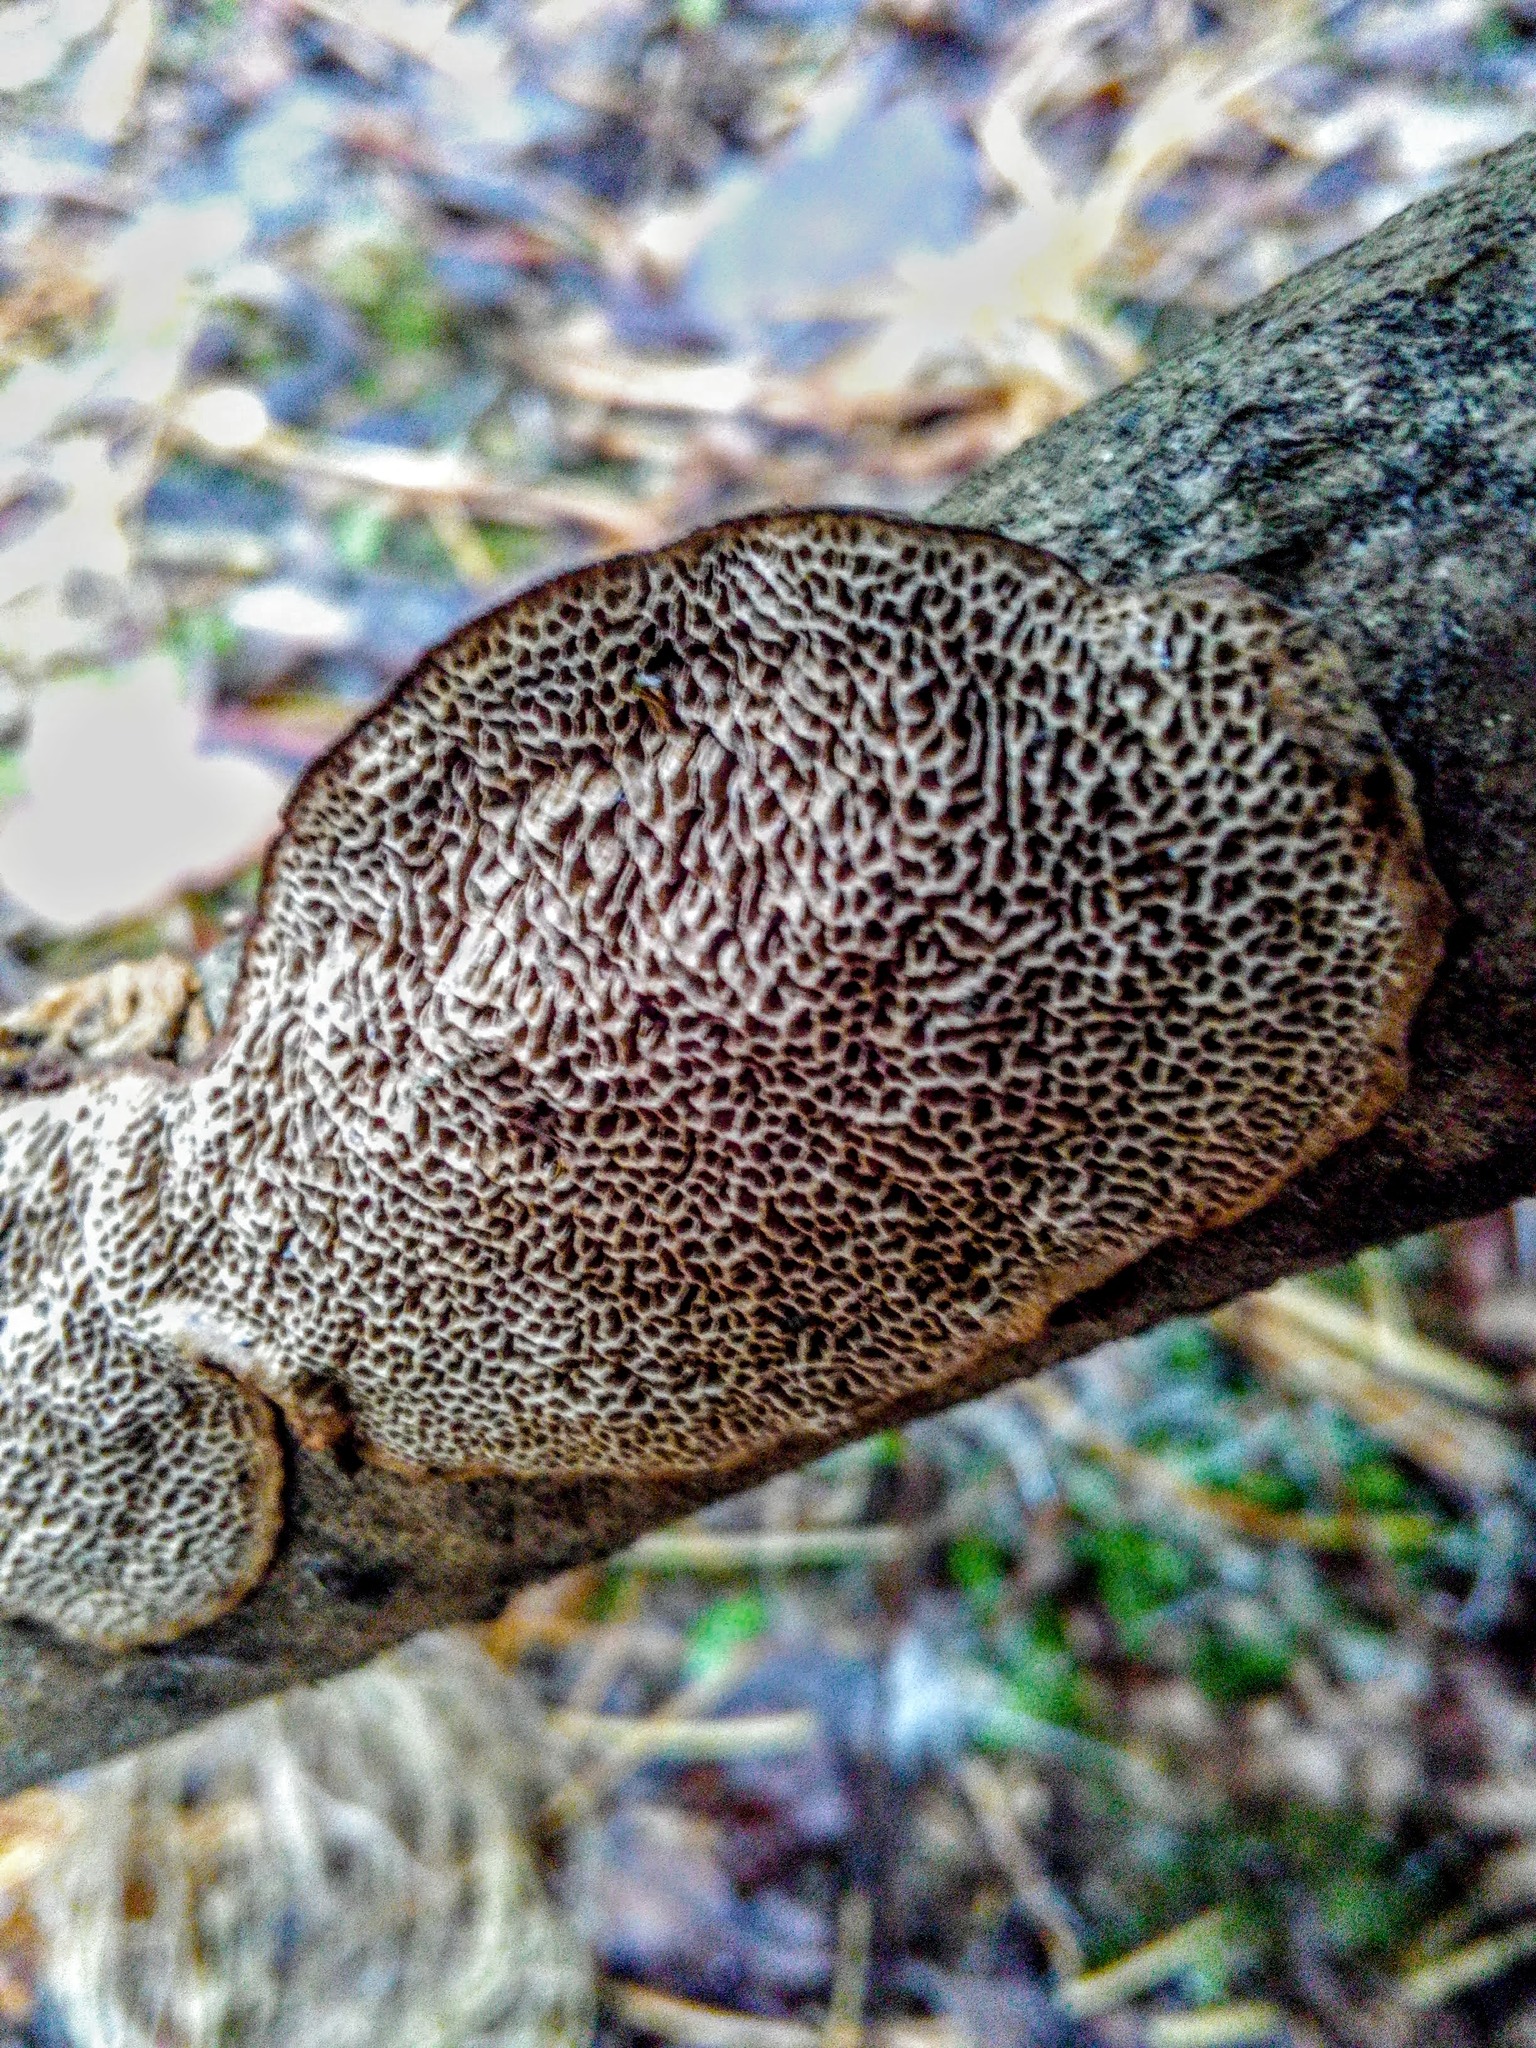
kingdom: Fungi
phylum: Basidiomycota
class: Agaricomycetes
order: Polyporales
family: Polyporaceae
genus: Podofomes
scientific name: Podofomes mollis
